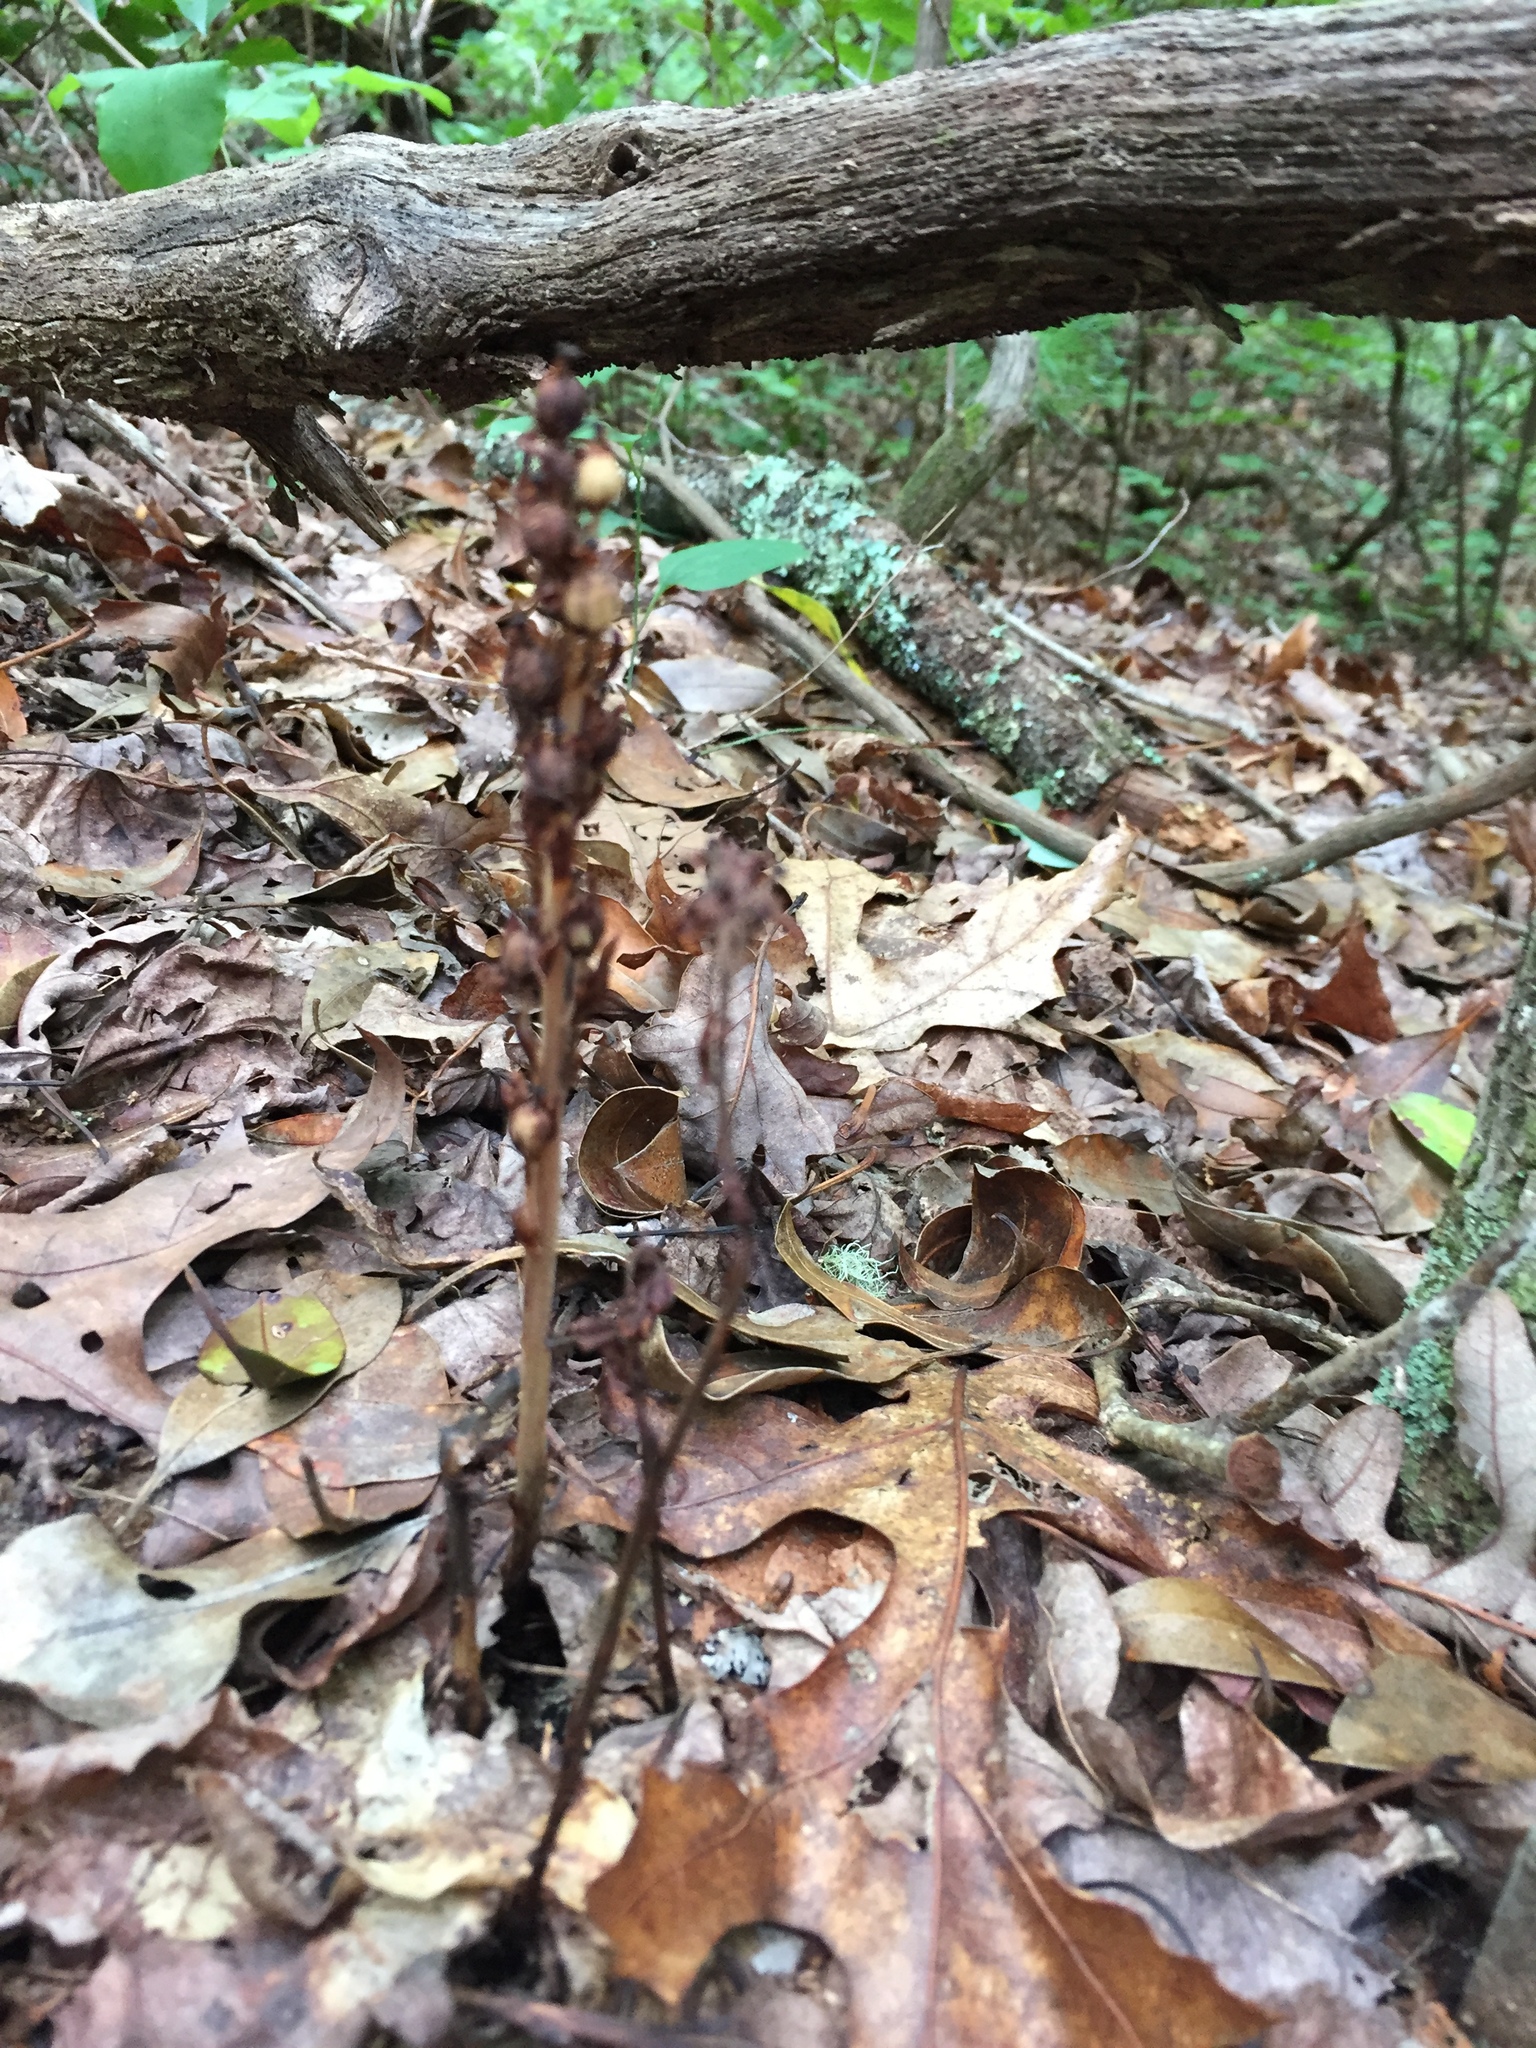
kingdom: Plantae
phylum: Tracheophyta
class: Magnoliopsida
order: Ericales
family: Ericaceae
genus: Hypopitys
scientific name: Hypopitys monotropa
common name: Yellow bird's-nest
